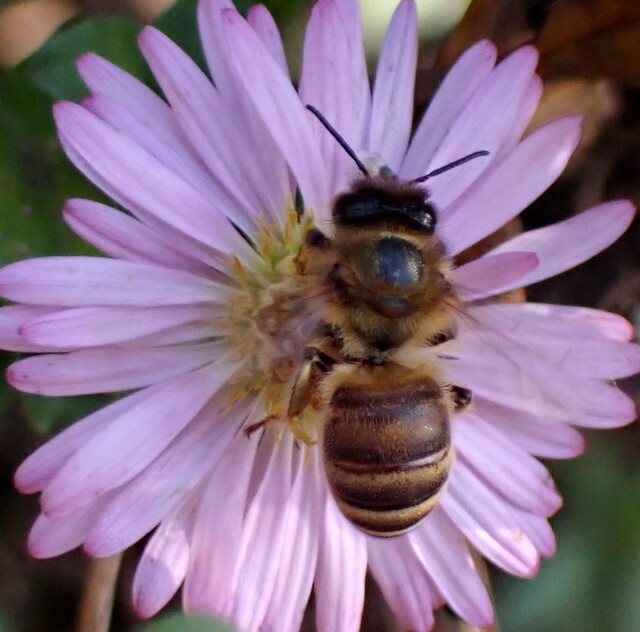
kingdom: Animalia
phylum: Arthropoda
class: Insecta
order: Hymenoptera
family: Apidae
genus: Apis
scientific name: Apis mellifera
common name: Honey bee
